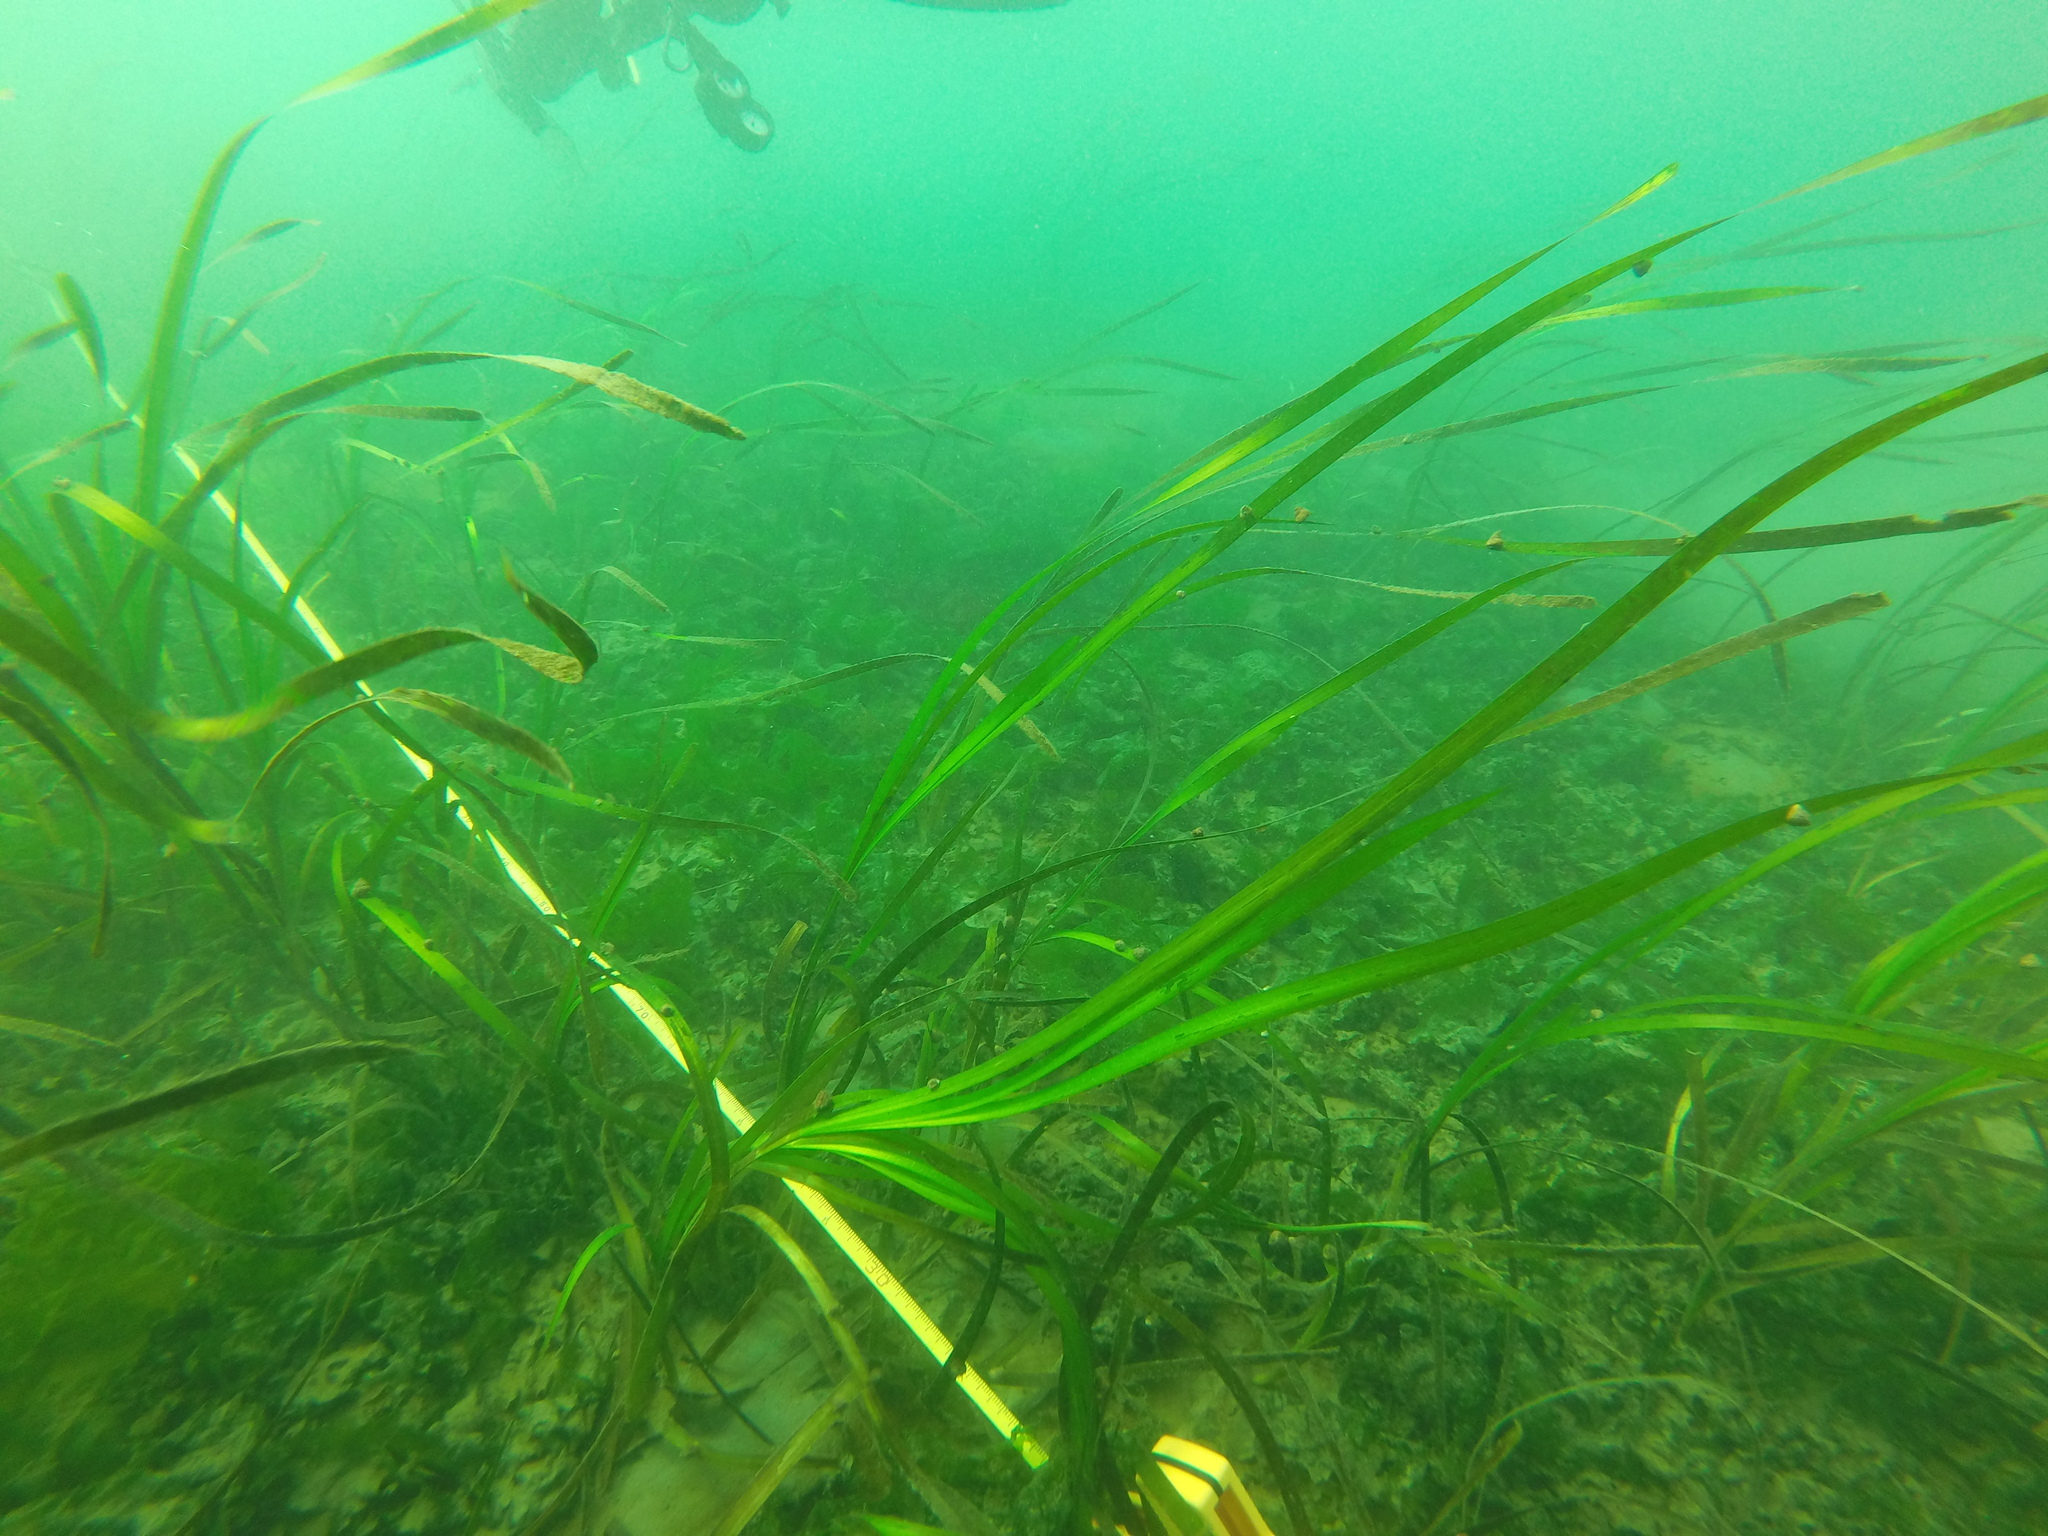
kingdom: Plantae
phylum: Tracheophyta
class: Liliopsida
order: Alismatales
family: Zosteraceae
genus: Zostera
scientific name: Zostera marina
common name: Eelgrass
